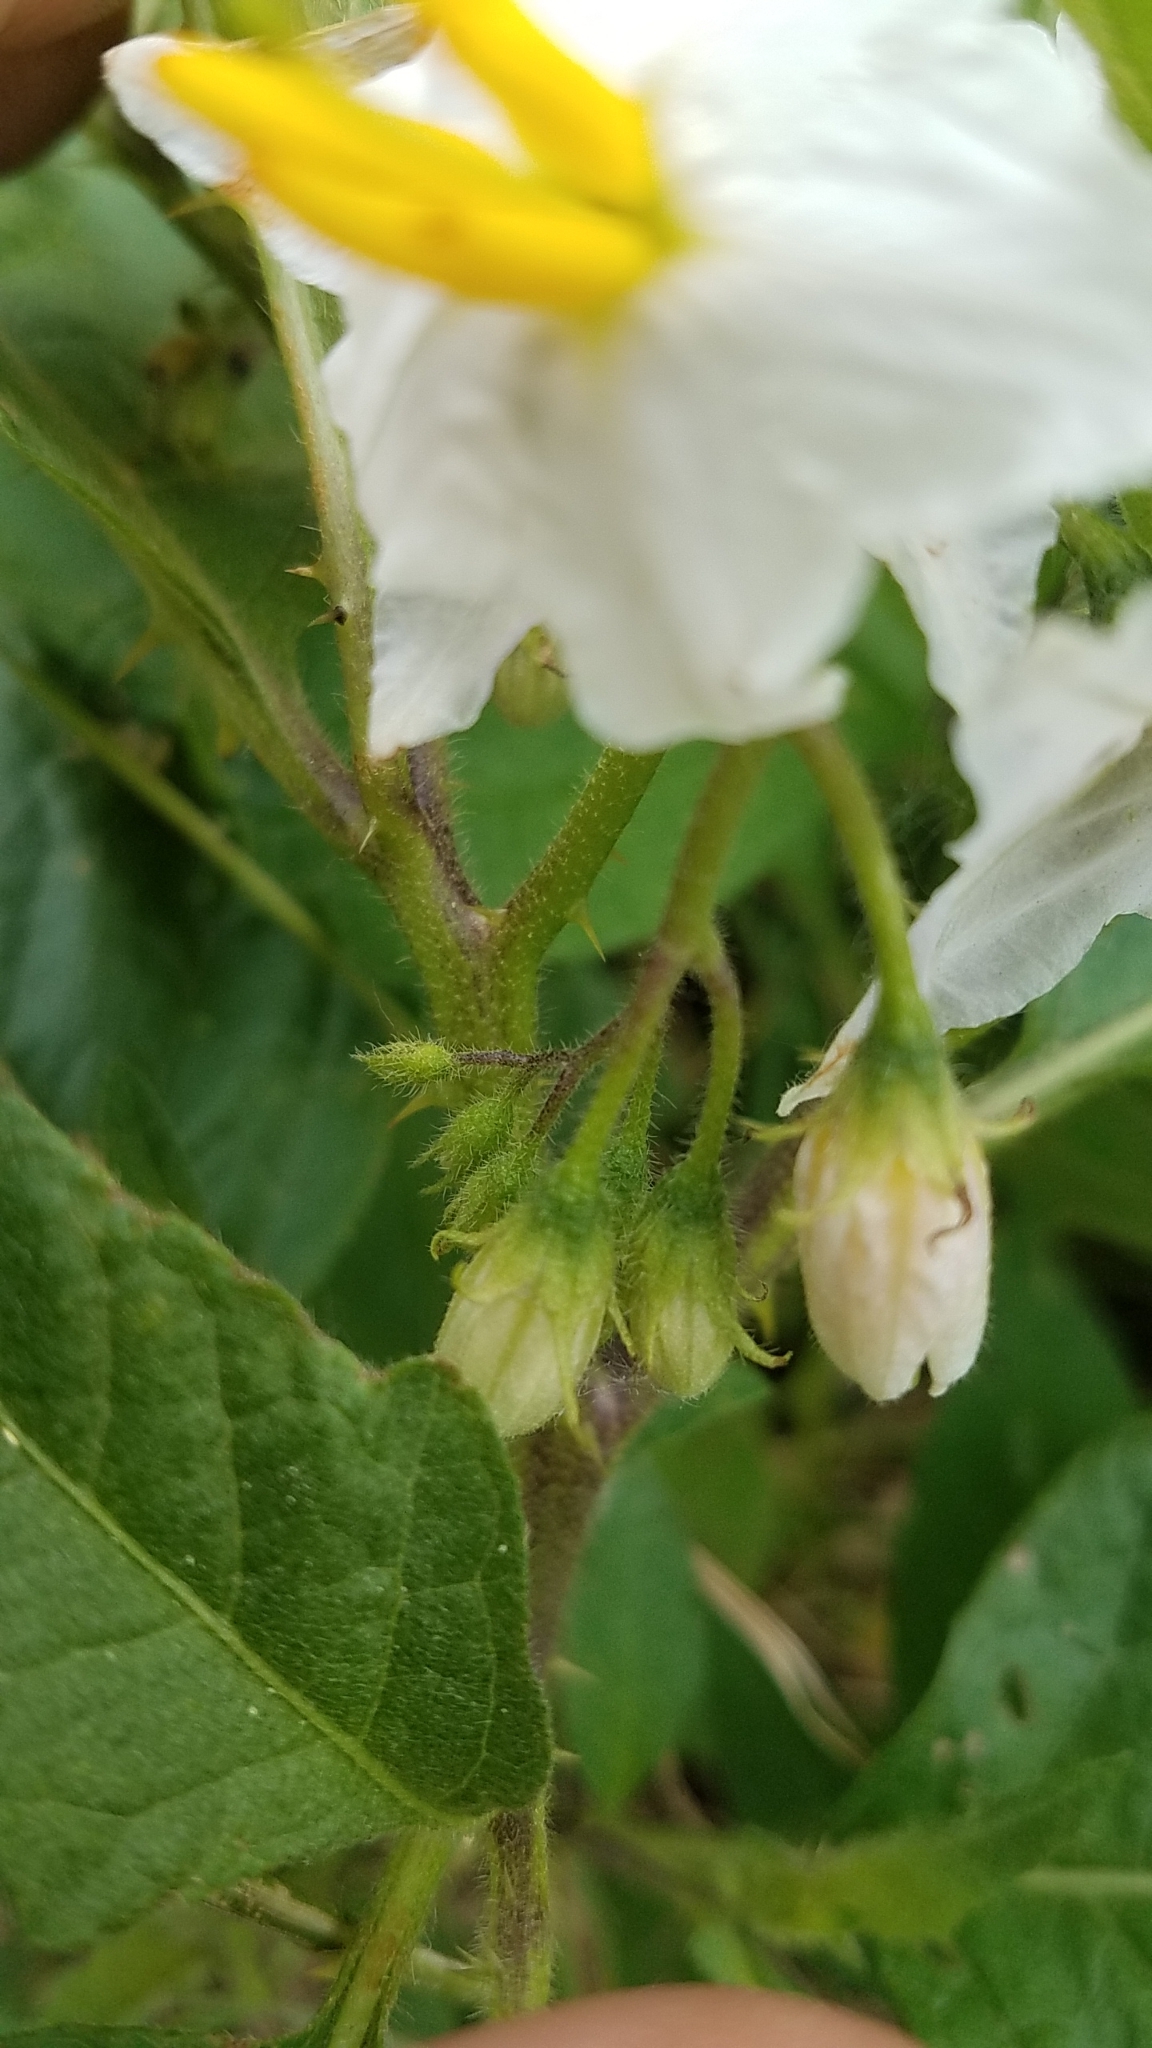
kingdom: Plantae
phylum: Tracheophyta
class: Magnoliopsida
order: Solanales
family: Solanaceae
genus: Solanum
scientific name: Solanum carolinense
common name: Horse-nettle
